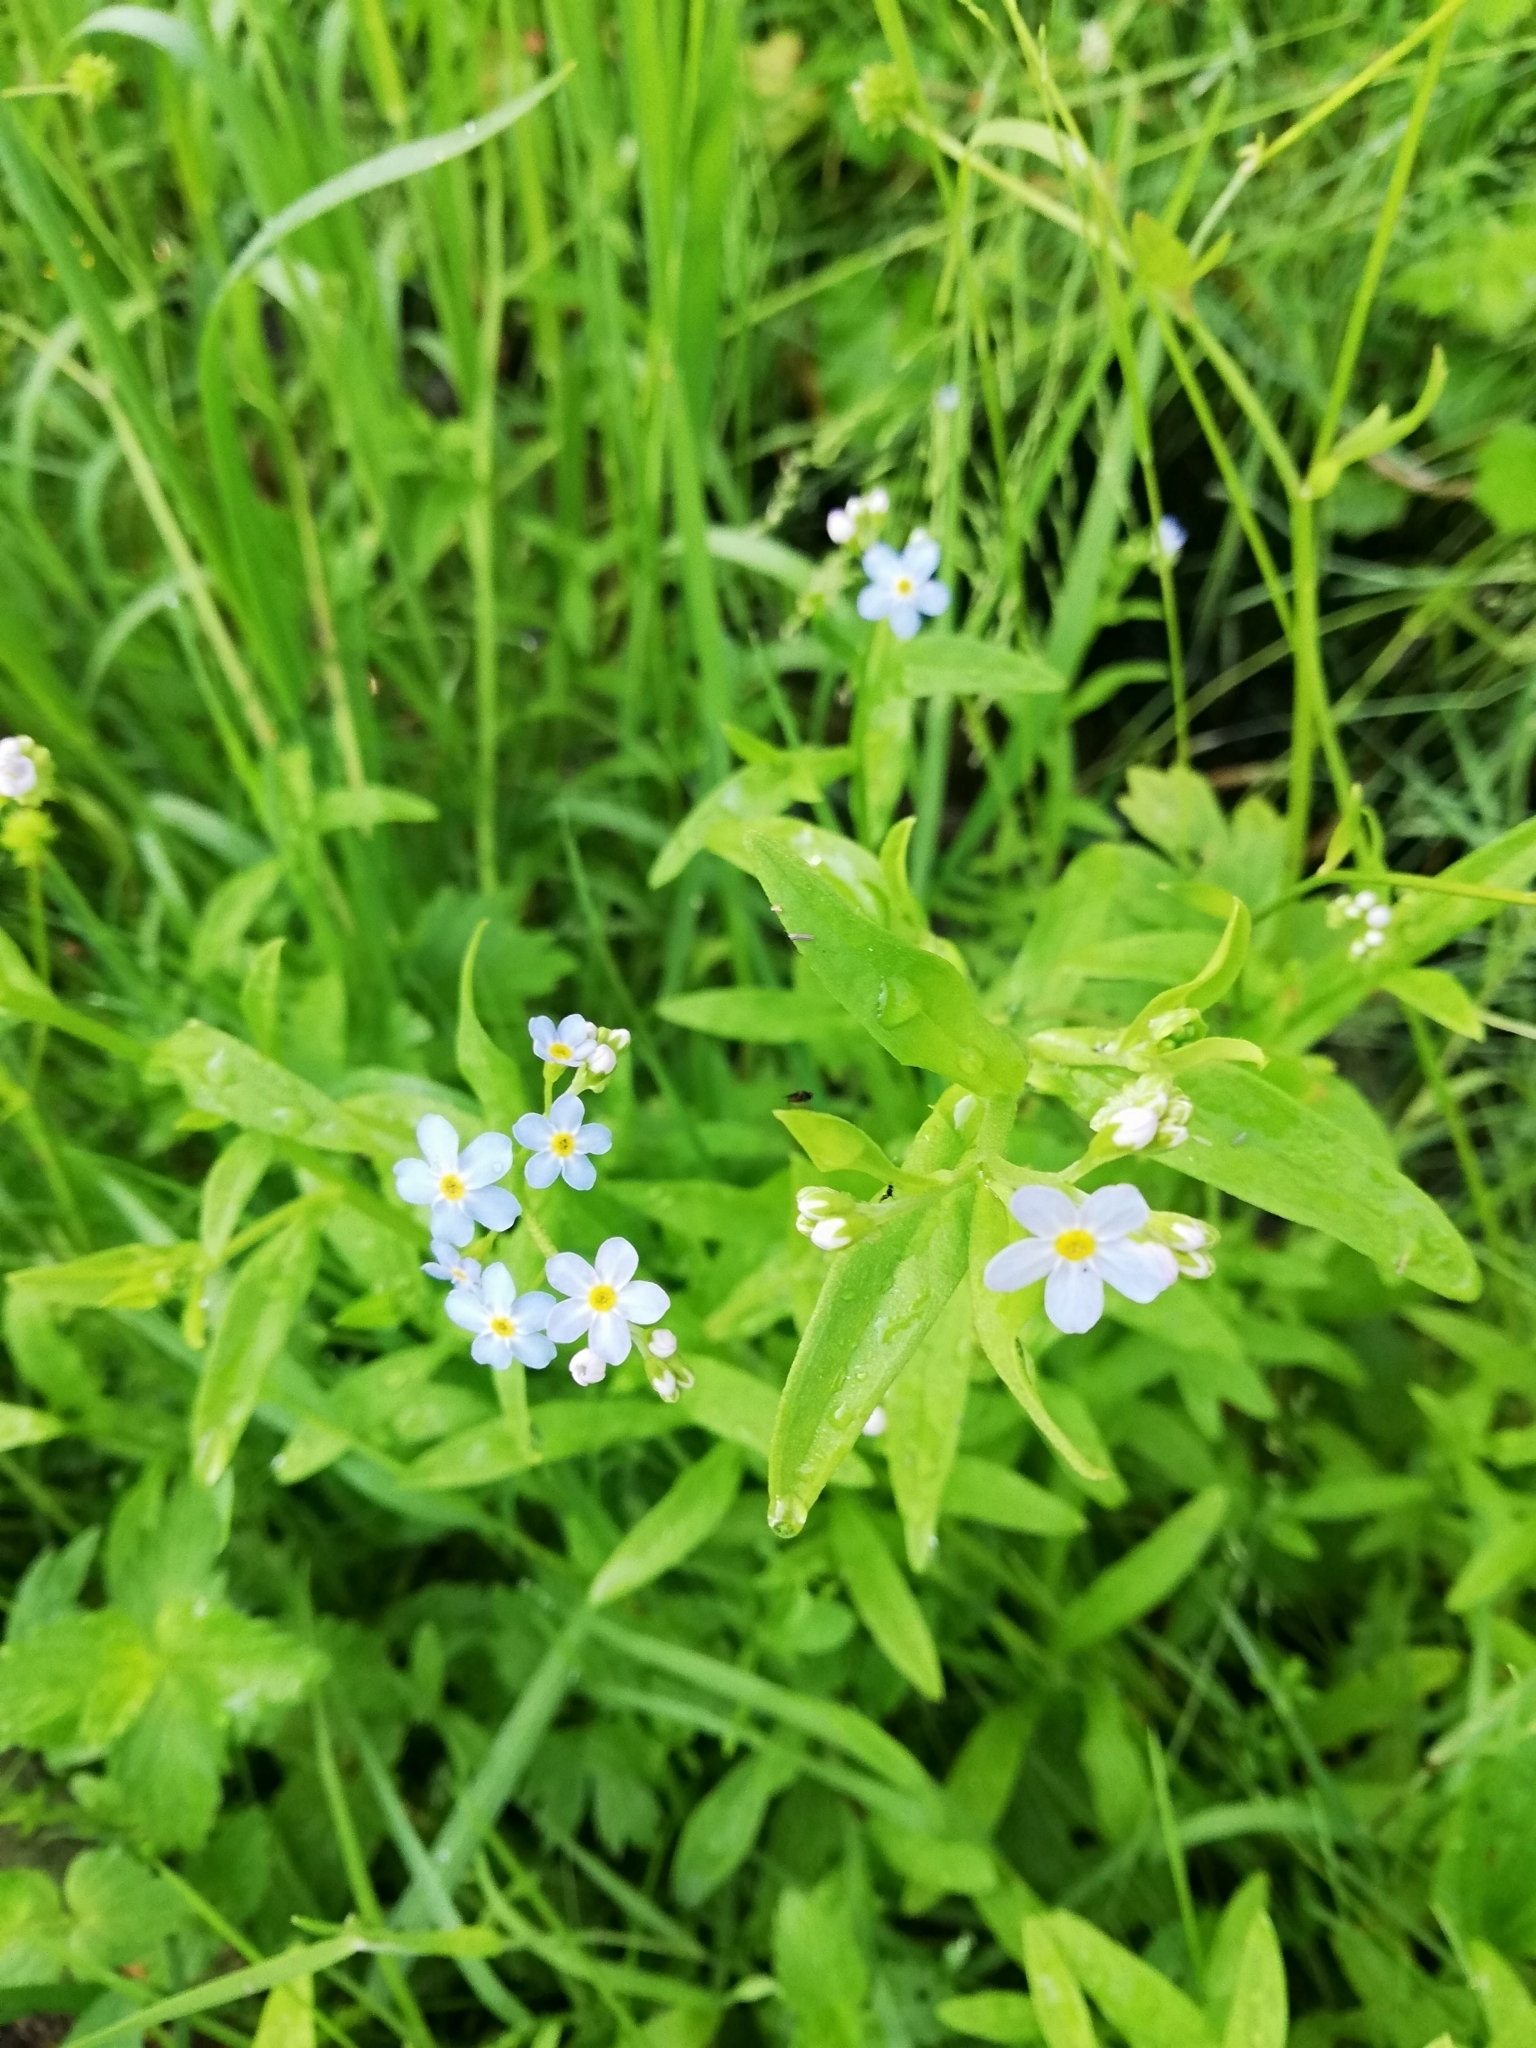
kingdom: Plantae
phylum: Tracheophyta
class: Magnoliopsida
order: Boraginales
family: Boraginaceae
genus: Myosotis
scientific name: Myosotis scorpioides
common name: Water forget-me-not
